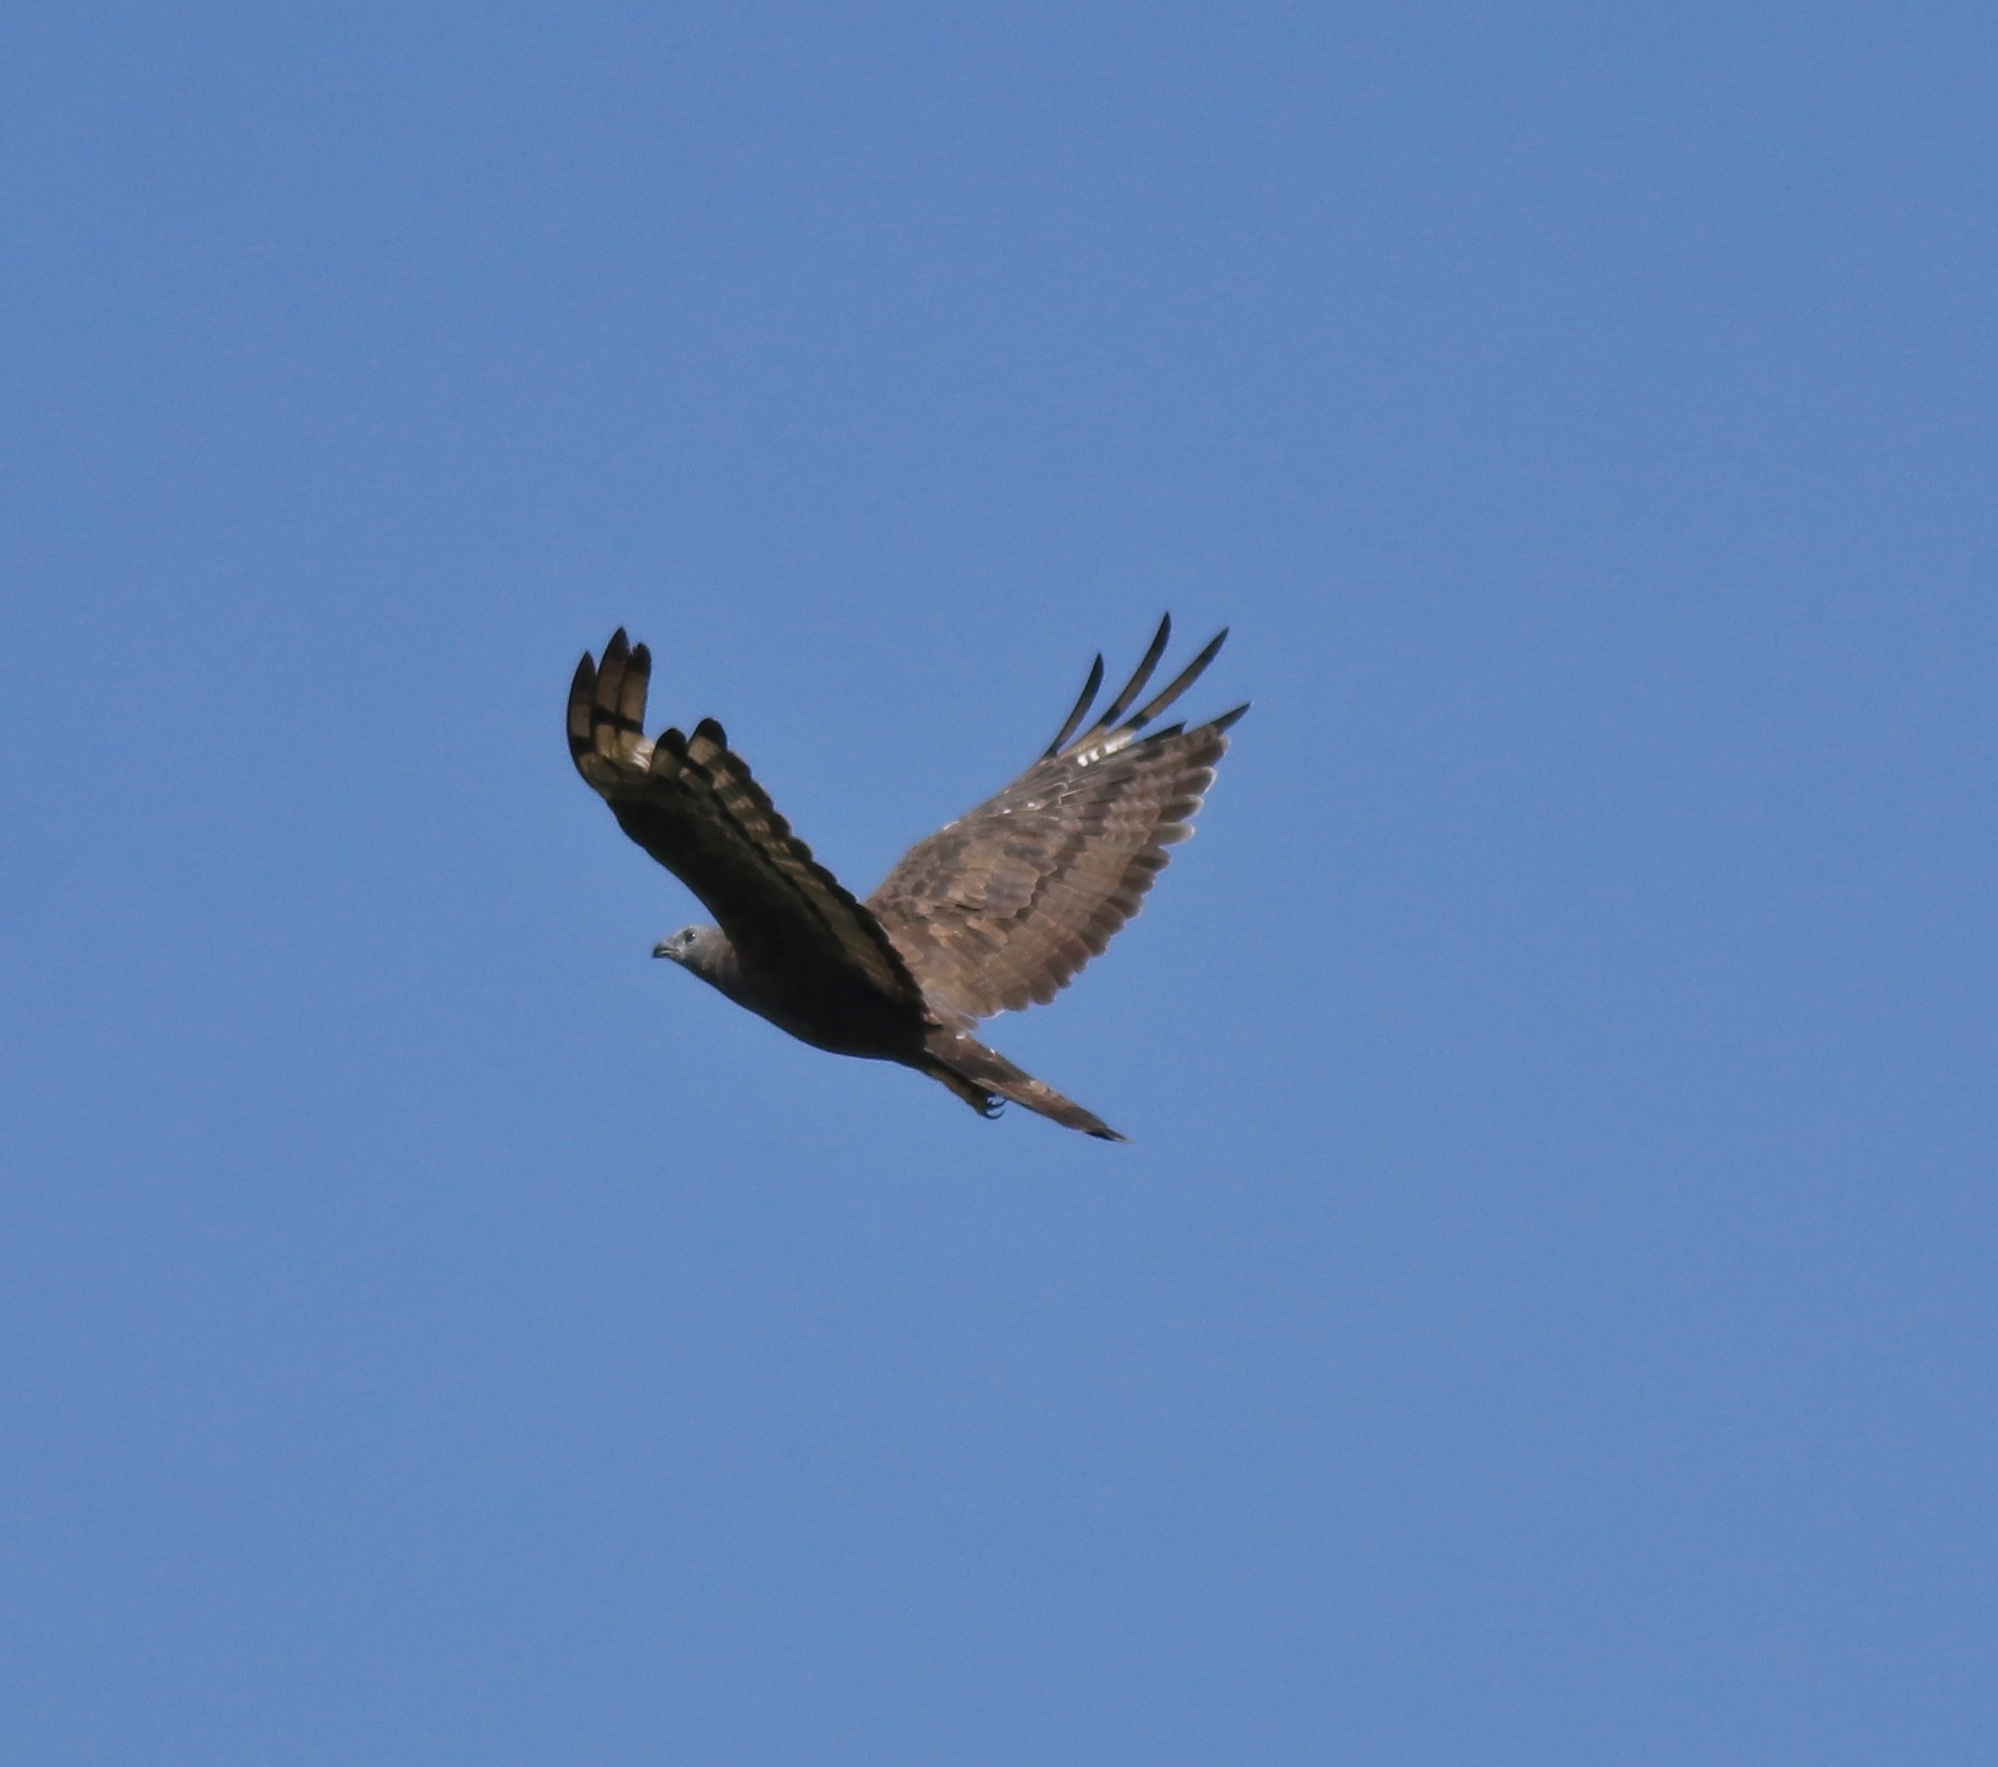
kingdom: Animalia
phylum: Chordata
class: Aves
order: Accipitriformes
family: Accipitridae
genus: Pernis
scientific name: Pernis ptilorhynchus
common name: Crested honey buzzard
